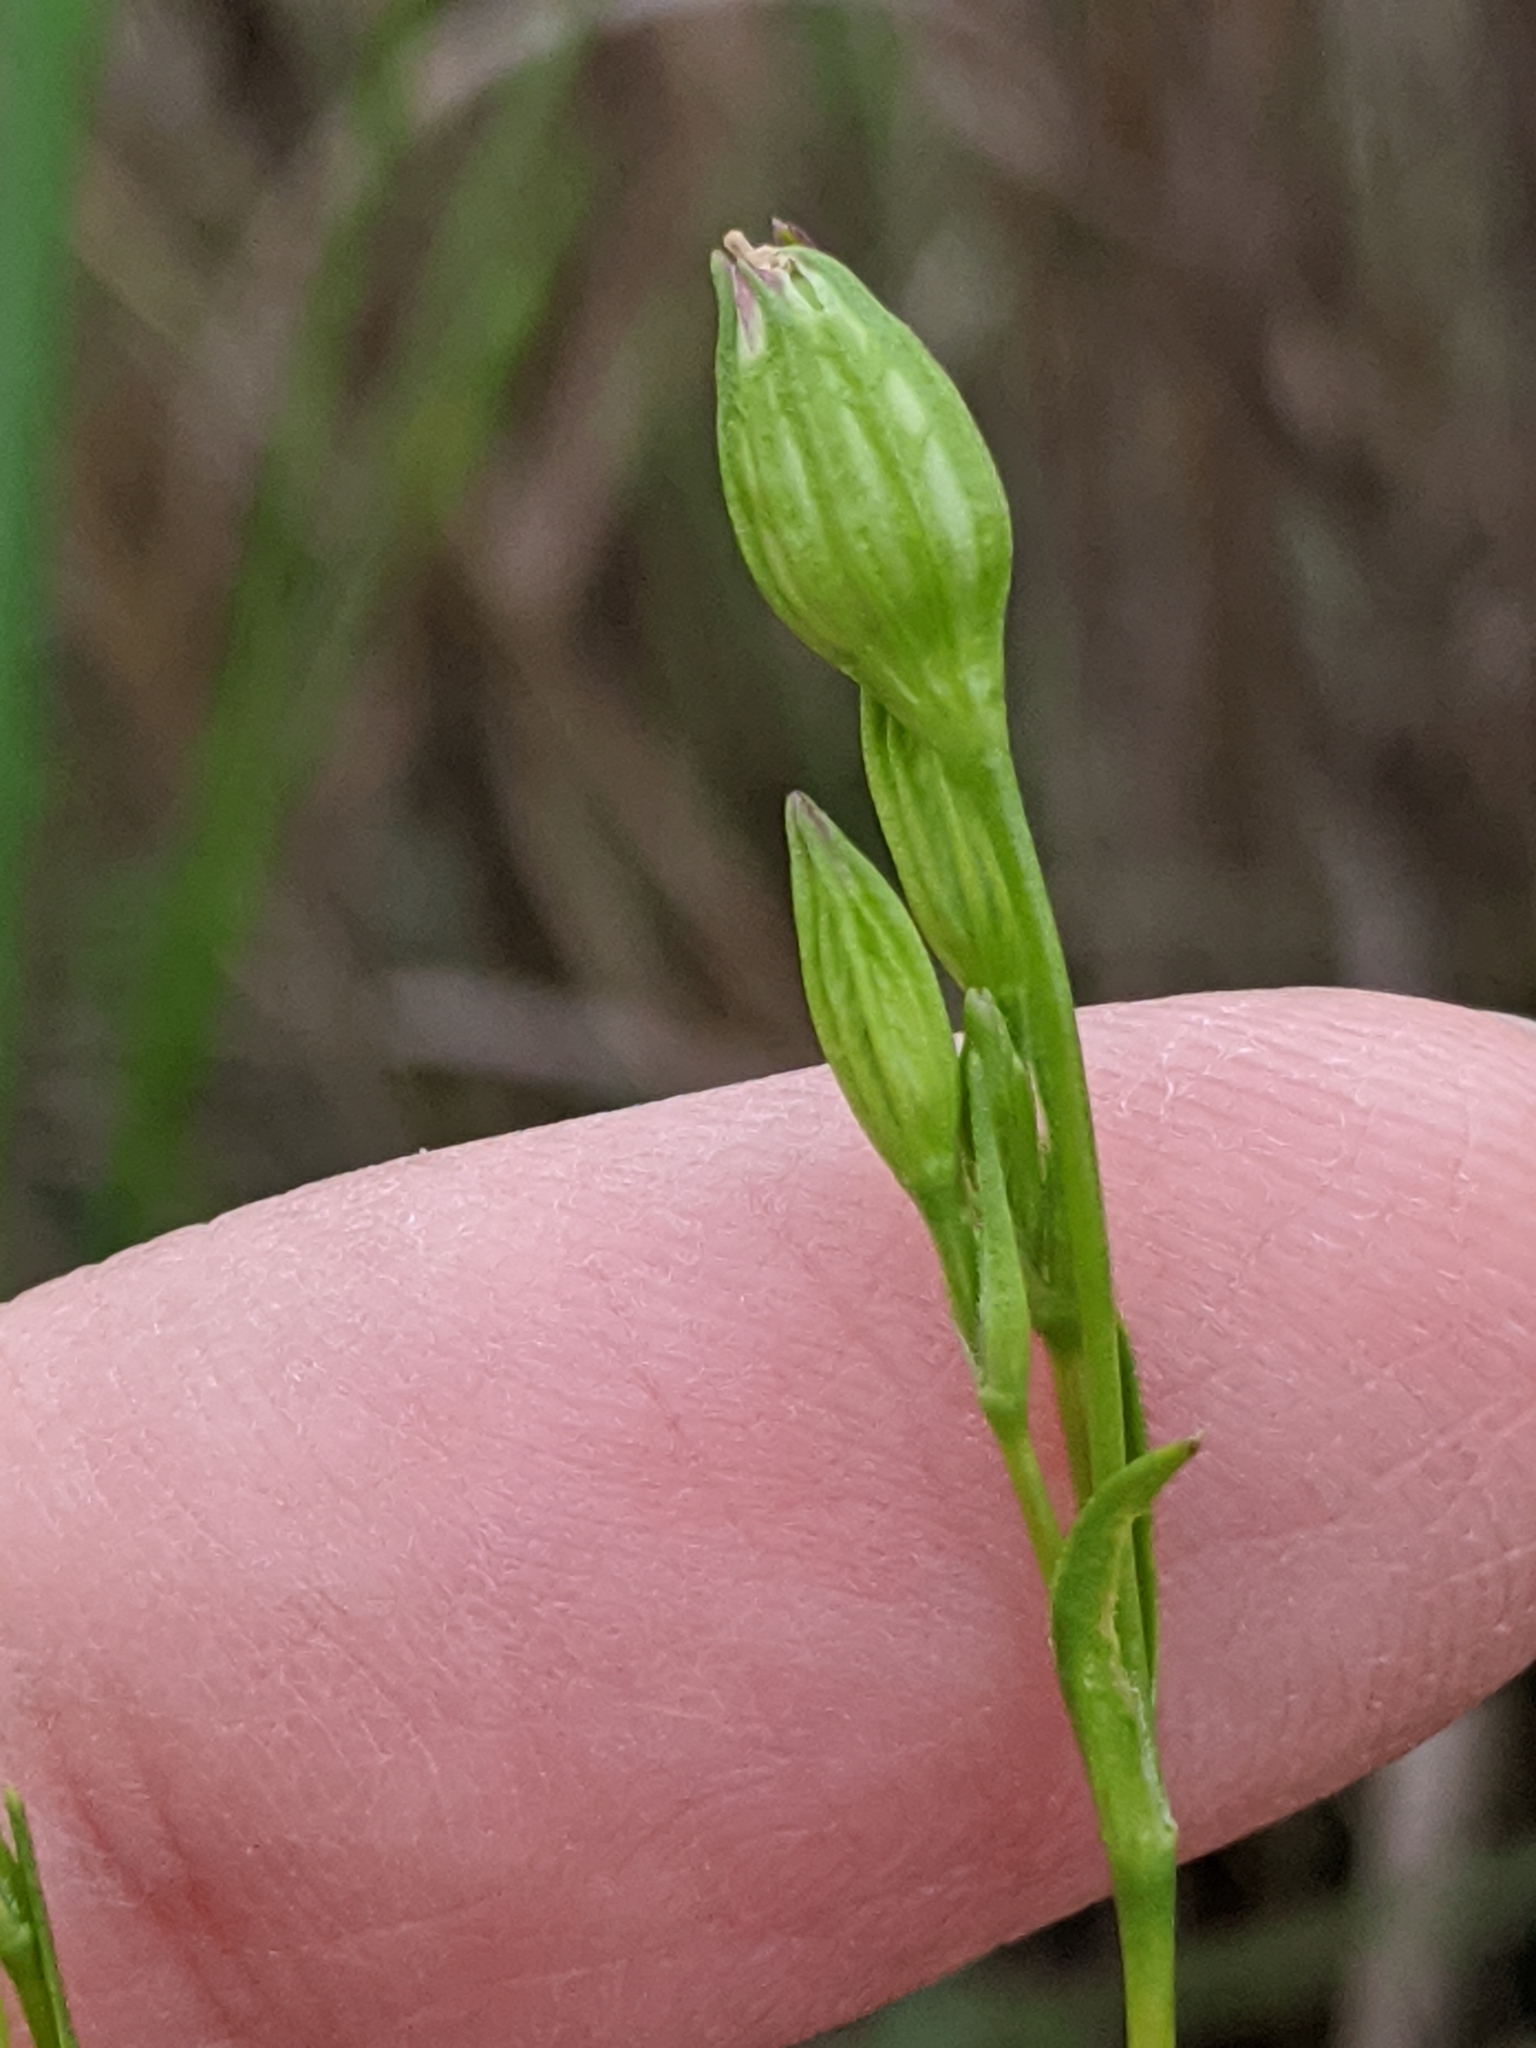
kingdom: Plantae
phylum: Tracheophyta
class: Magnoliopsida
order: Caryophyllales
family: Caryophyllaceae
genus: Silene
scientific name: Silene antirrhina
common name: Sleepy catchfly
